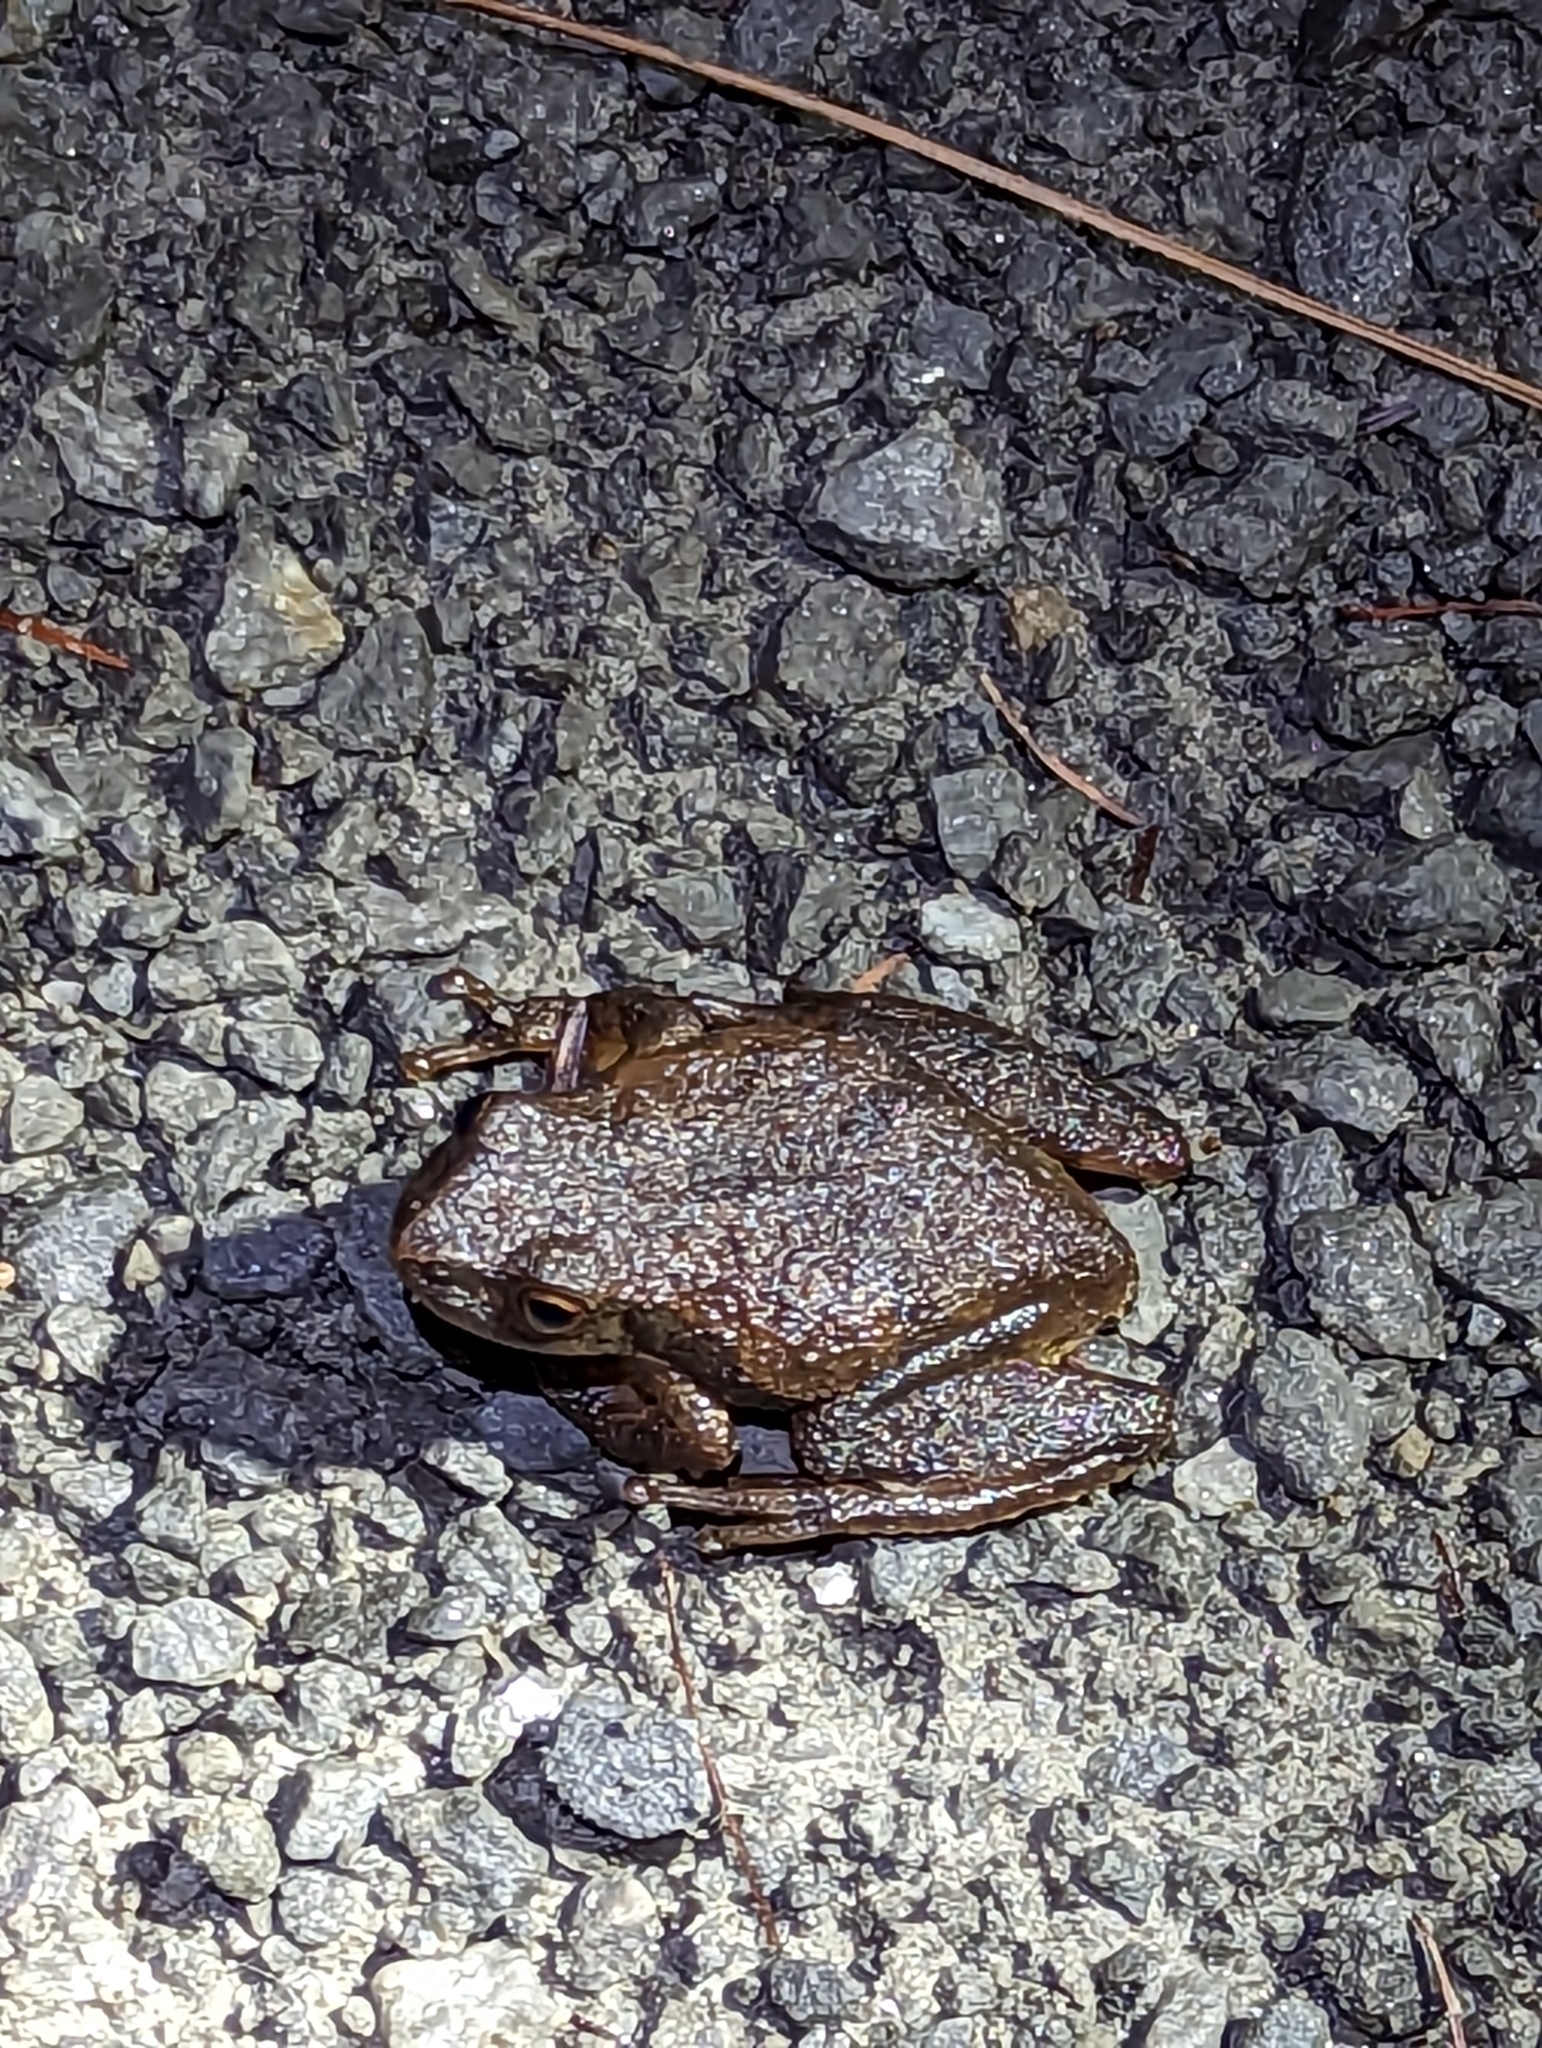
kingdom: Animalia
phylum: Chordata
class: Amphibia
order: Anura
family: Hylidae
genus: Pseudacris
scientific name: Pseudacris crucifer
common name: Spring peeper
